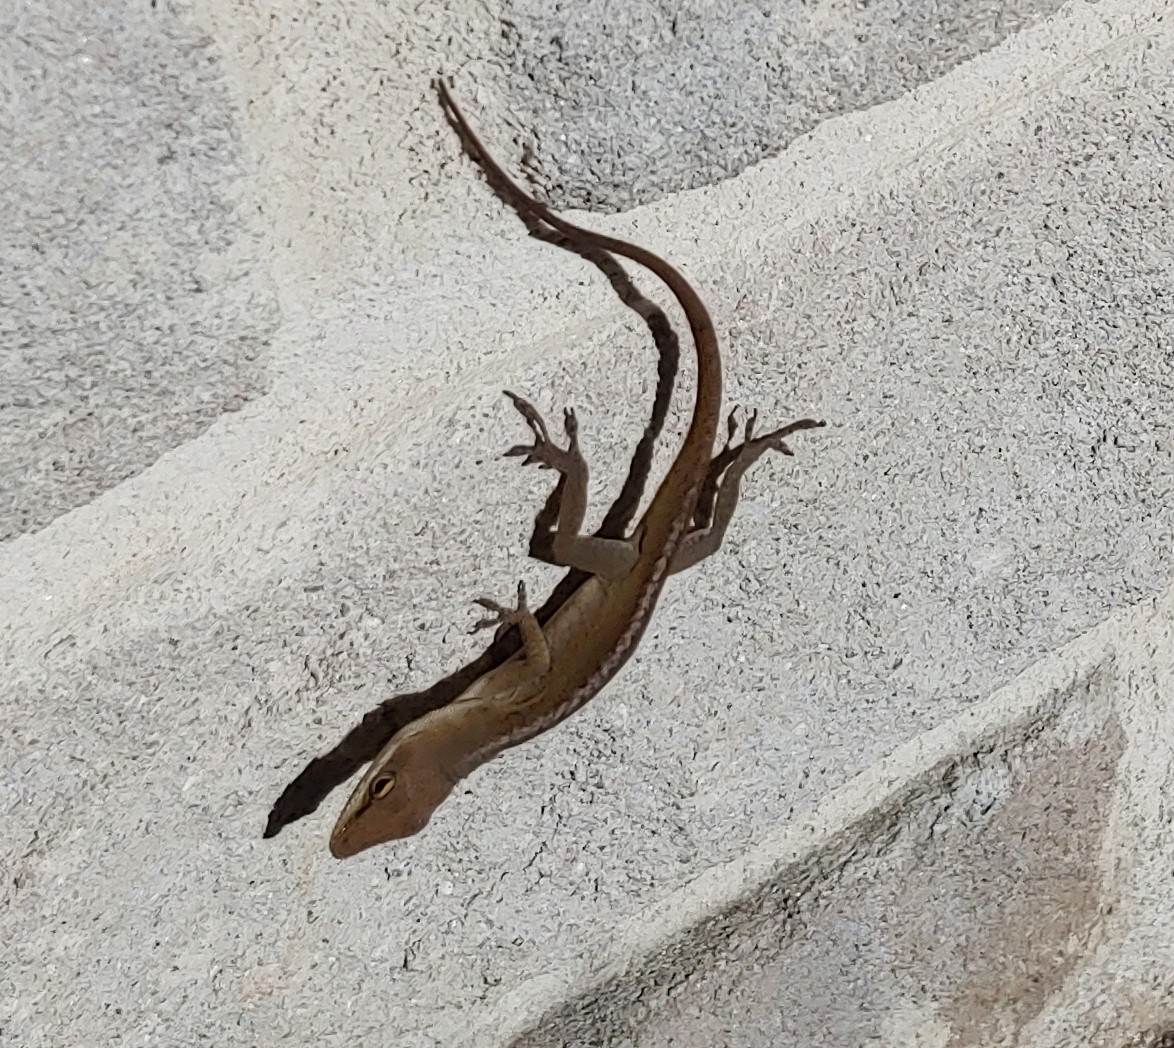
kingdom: Animalia
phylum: Chordata
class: Squamata
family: Dactyloidae
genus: Anolis
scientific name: Anolis carolinensis
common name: Green anole
